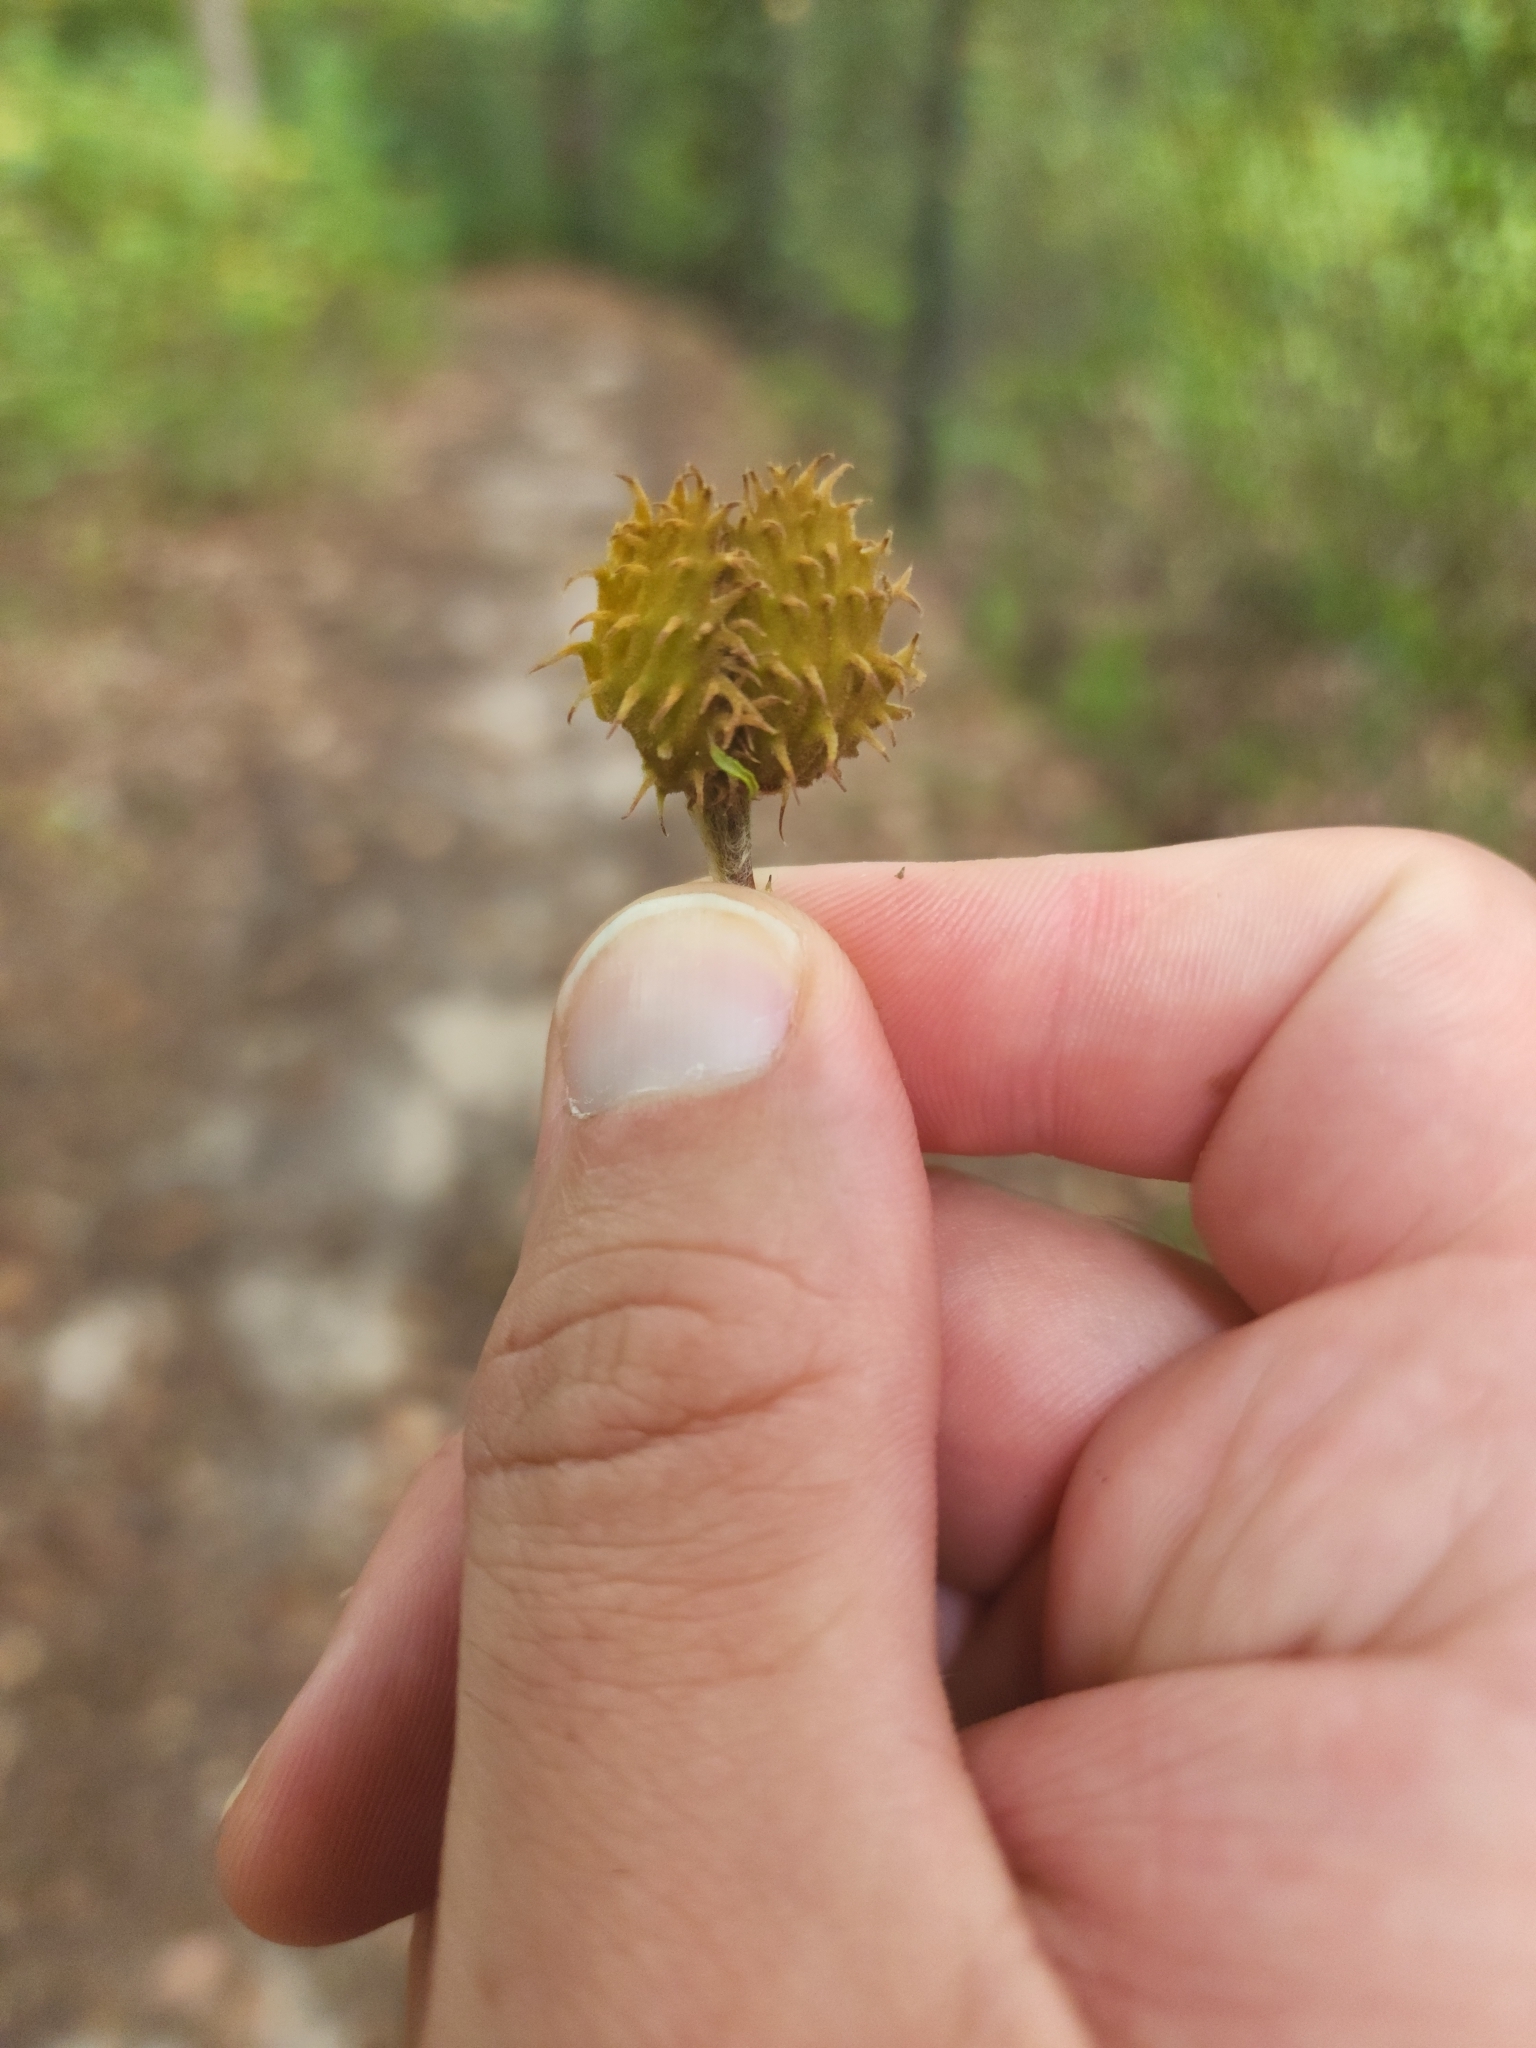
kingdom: Plantae
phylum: Tracheophyta
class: Magnoliopsida
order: Fagales
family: Fagaceae
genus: Fagus
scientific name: Fagus grandifolia
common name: American beech
